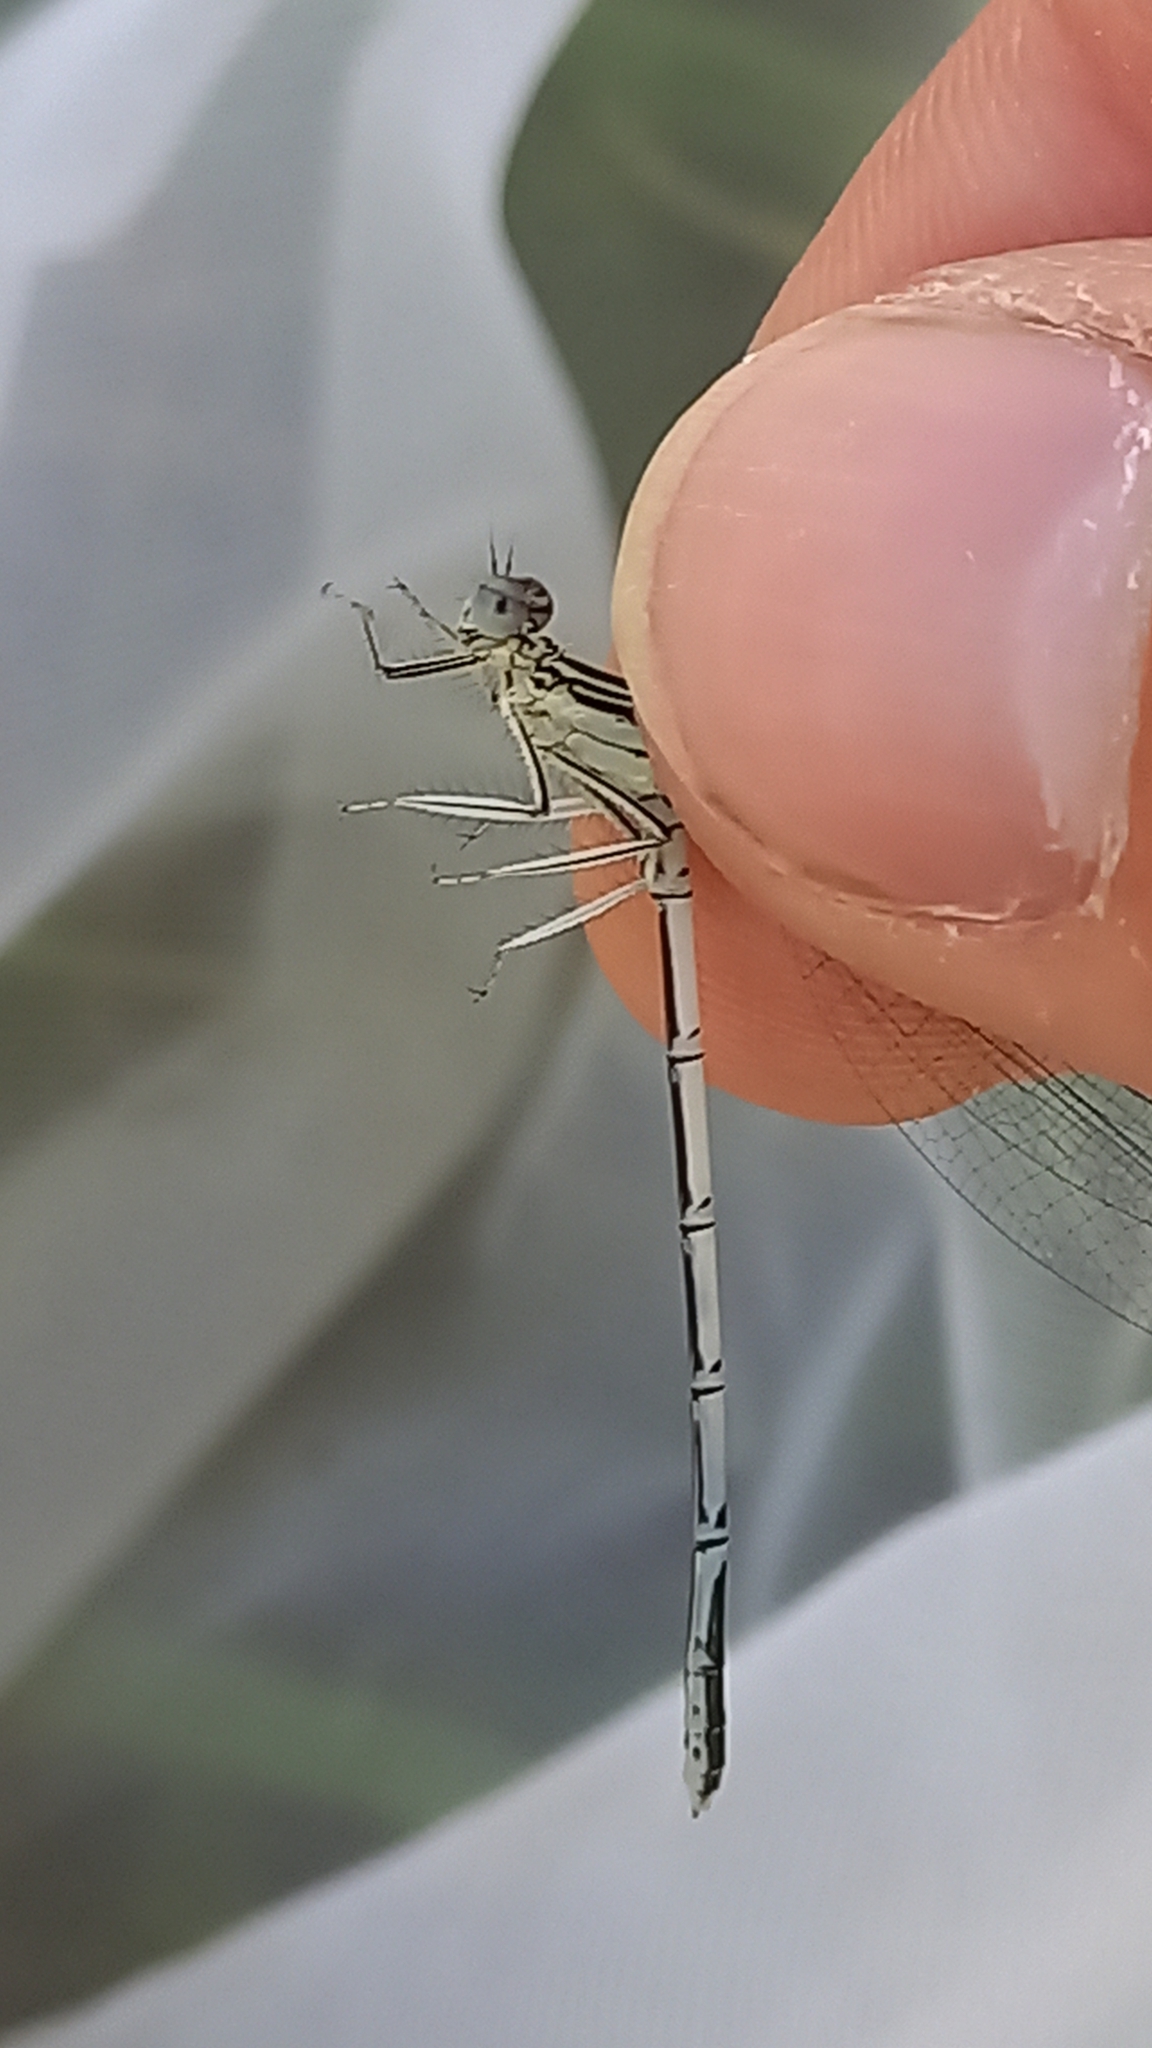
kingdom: Animalia
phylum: Arthropoda
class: Insecta
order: Odonata
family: Platycnemididae
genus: Platycnemis
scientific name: Platycnemis pennipes
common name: White-legged damselfly
